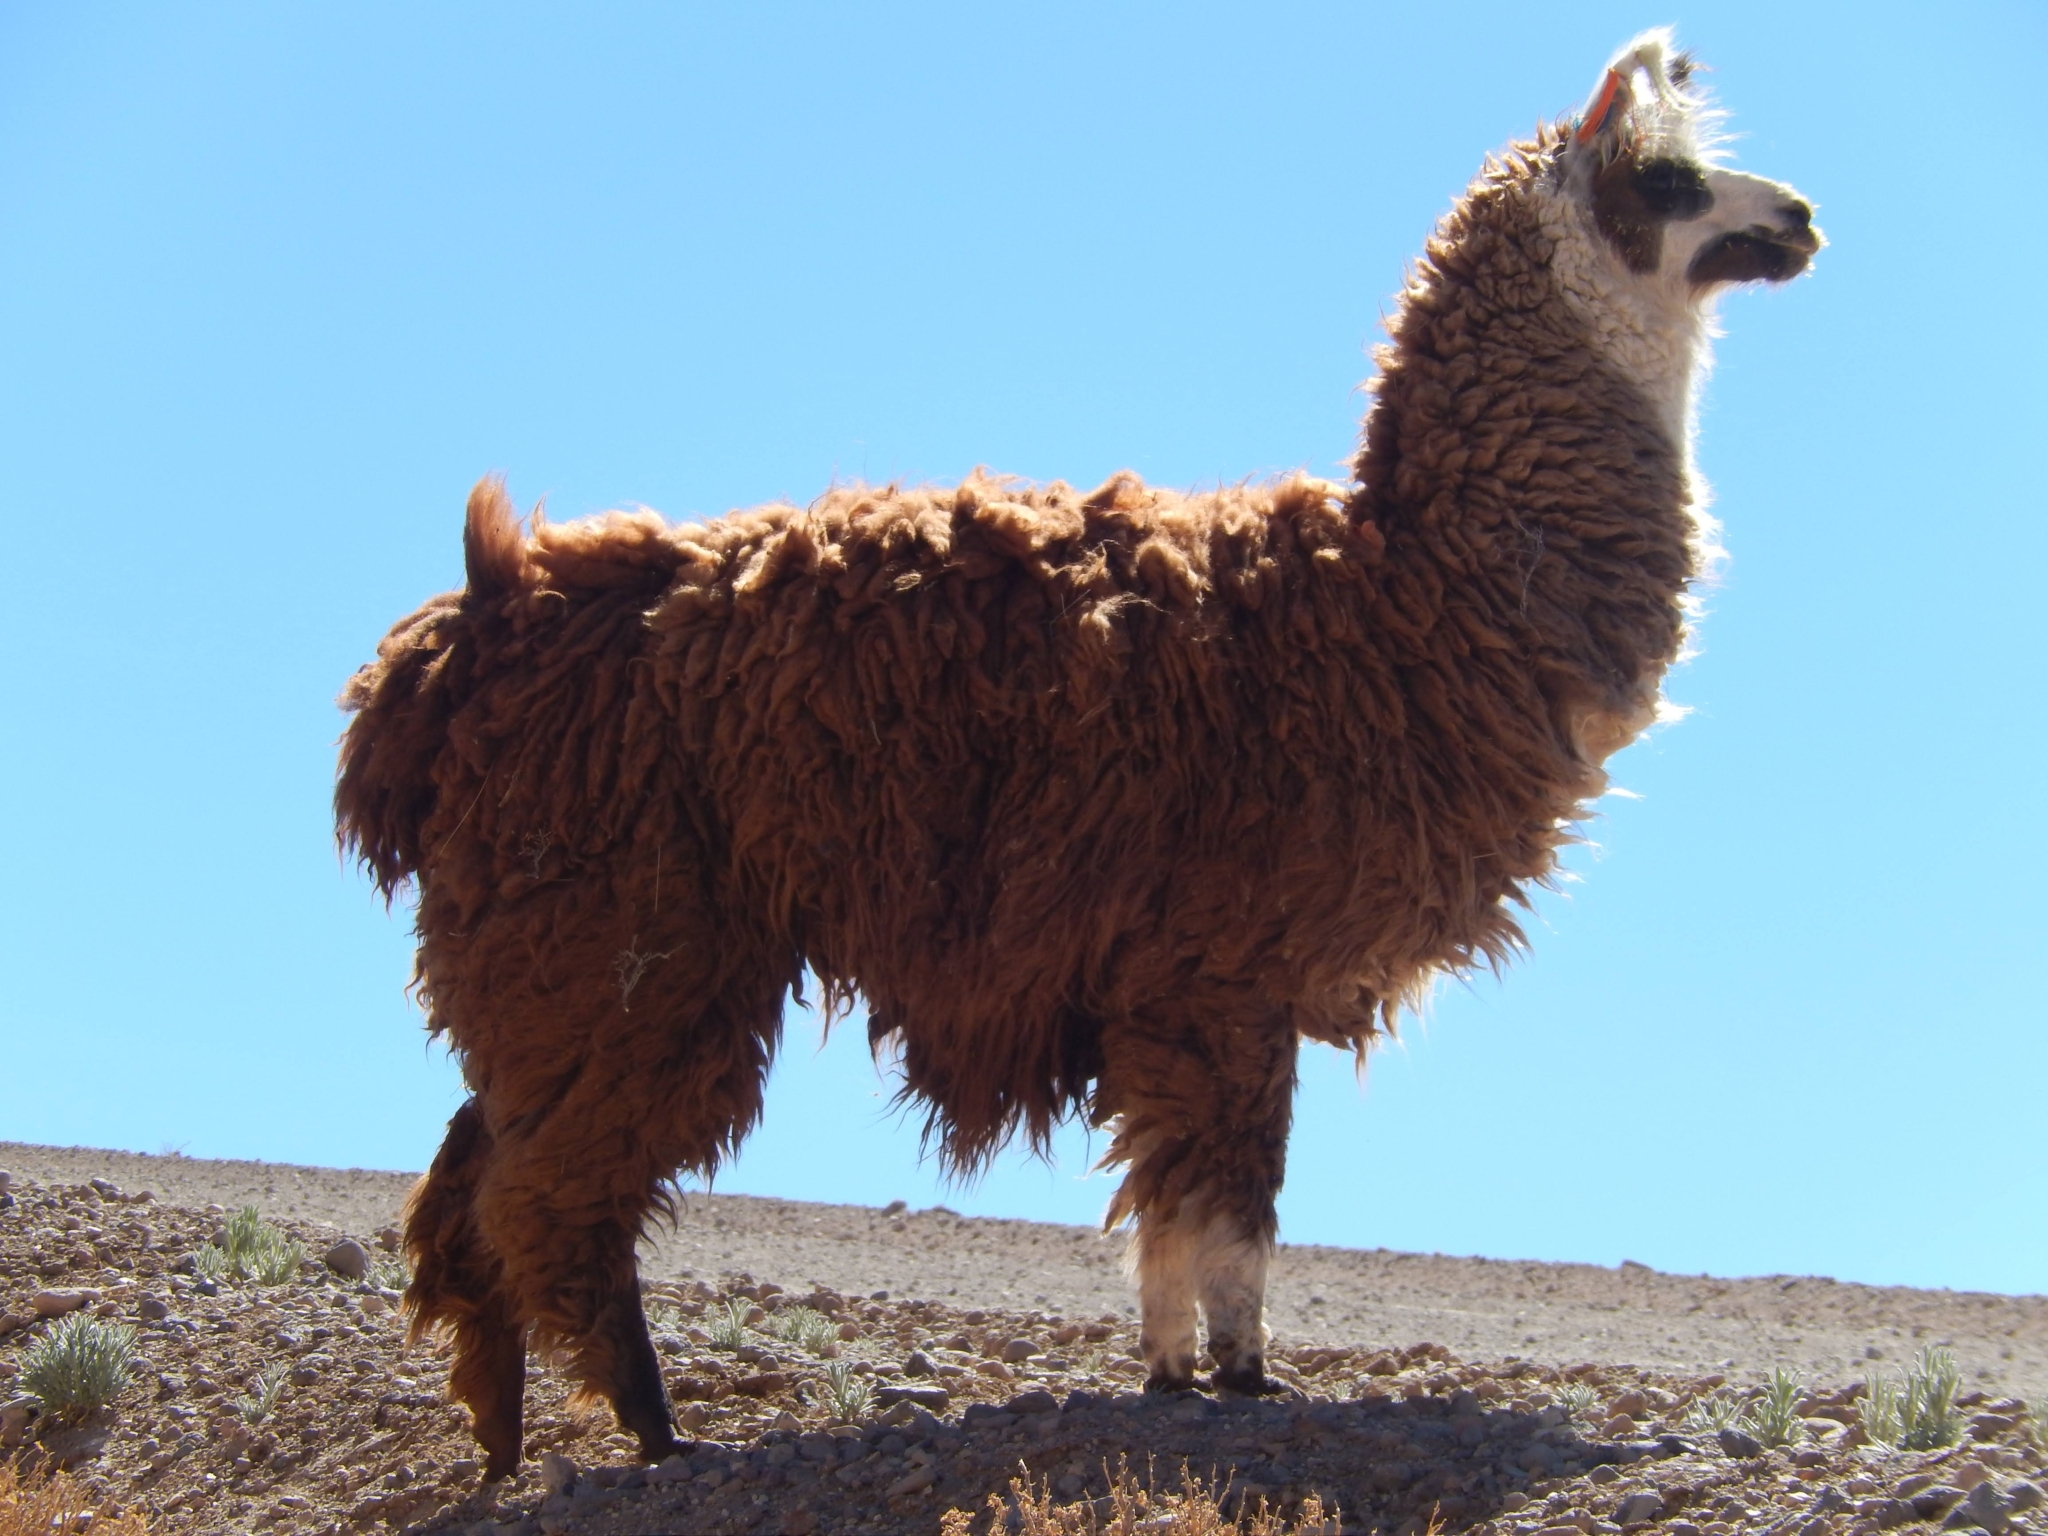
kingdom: Animalia
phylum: Chordata
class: Mammalia
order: Artiodactyla
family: Camelidae
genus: Lama
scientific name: Lama glama
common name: Llama
